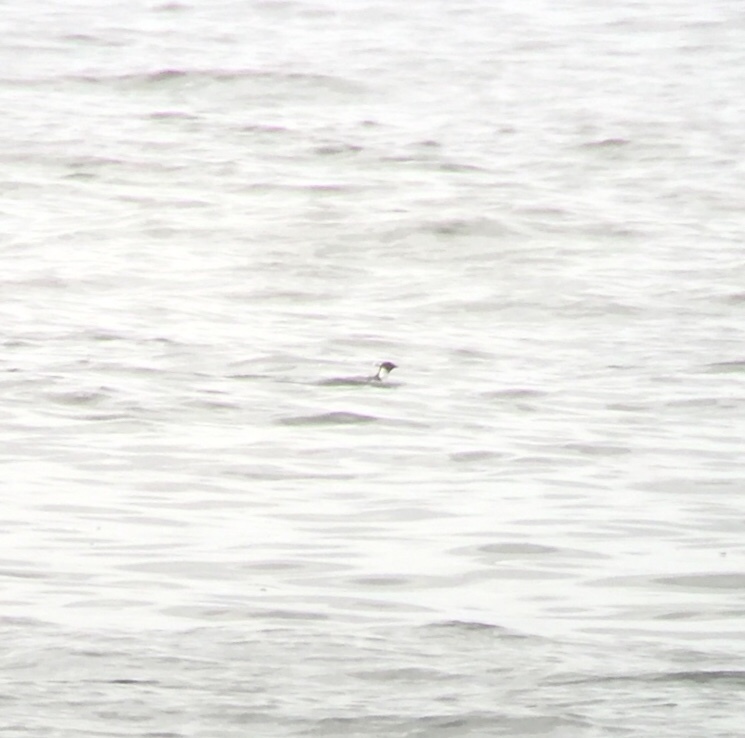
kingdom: Animalia
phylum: Chordata
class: Aves
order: Charadriiformes
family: Alcidae
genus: Synthliboramphus
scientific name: Synthliboramphus antiquus
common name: Ancient murrelet
